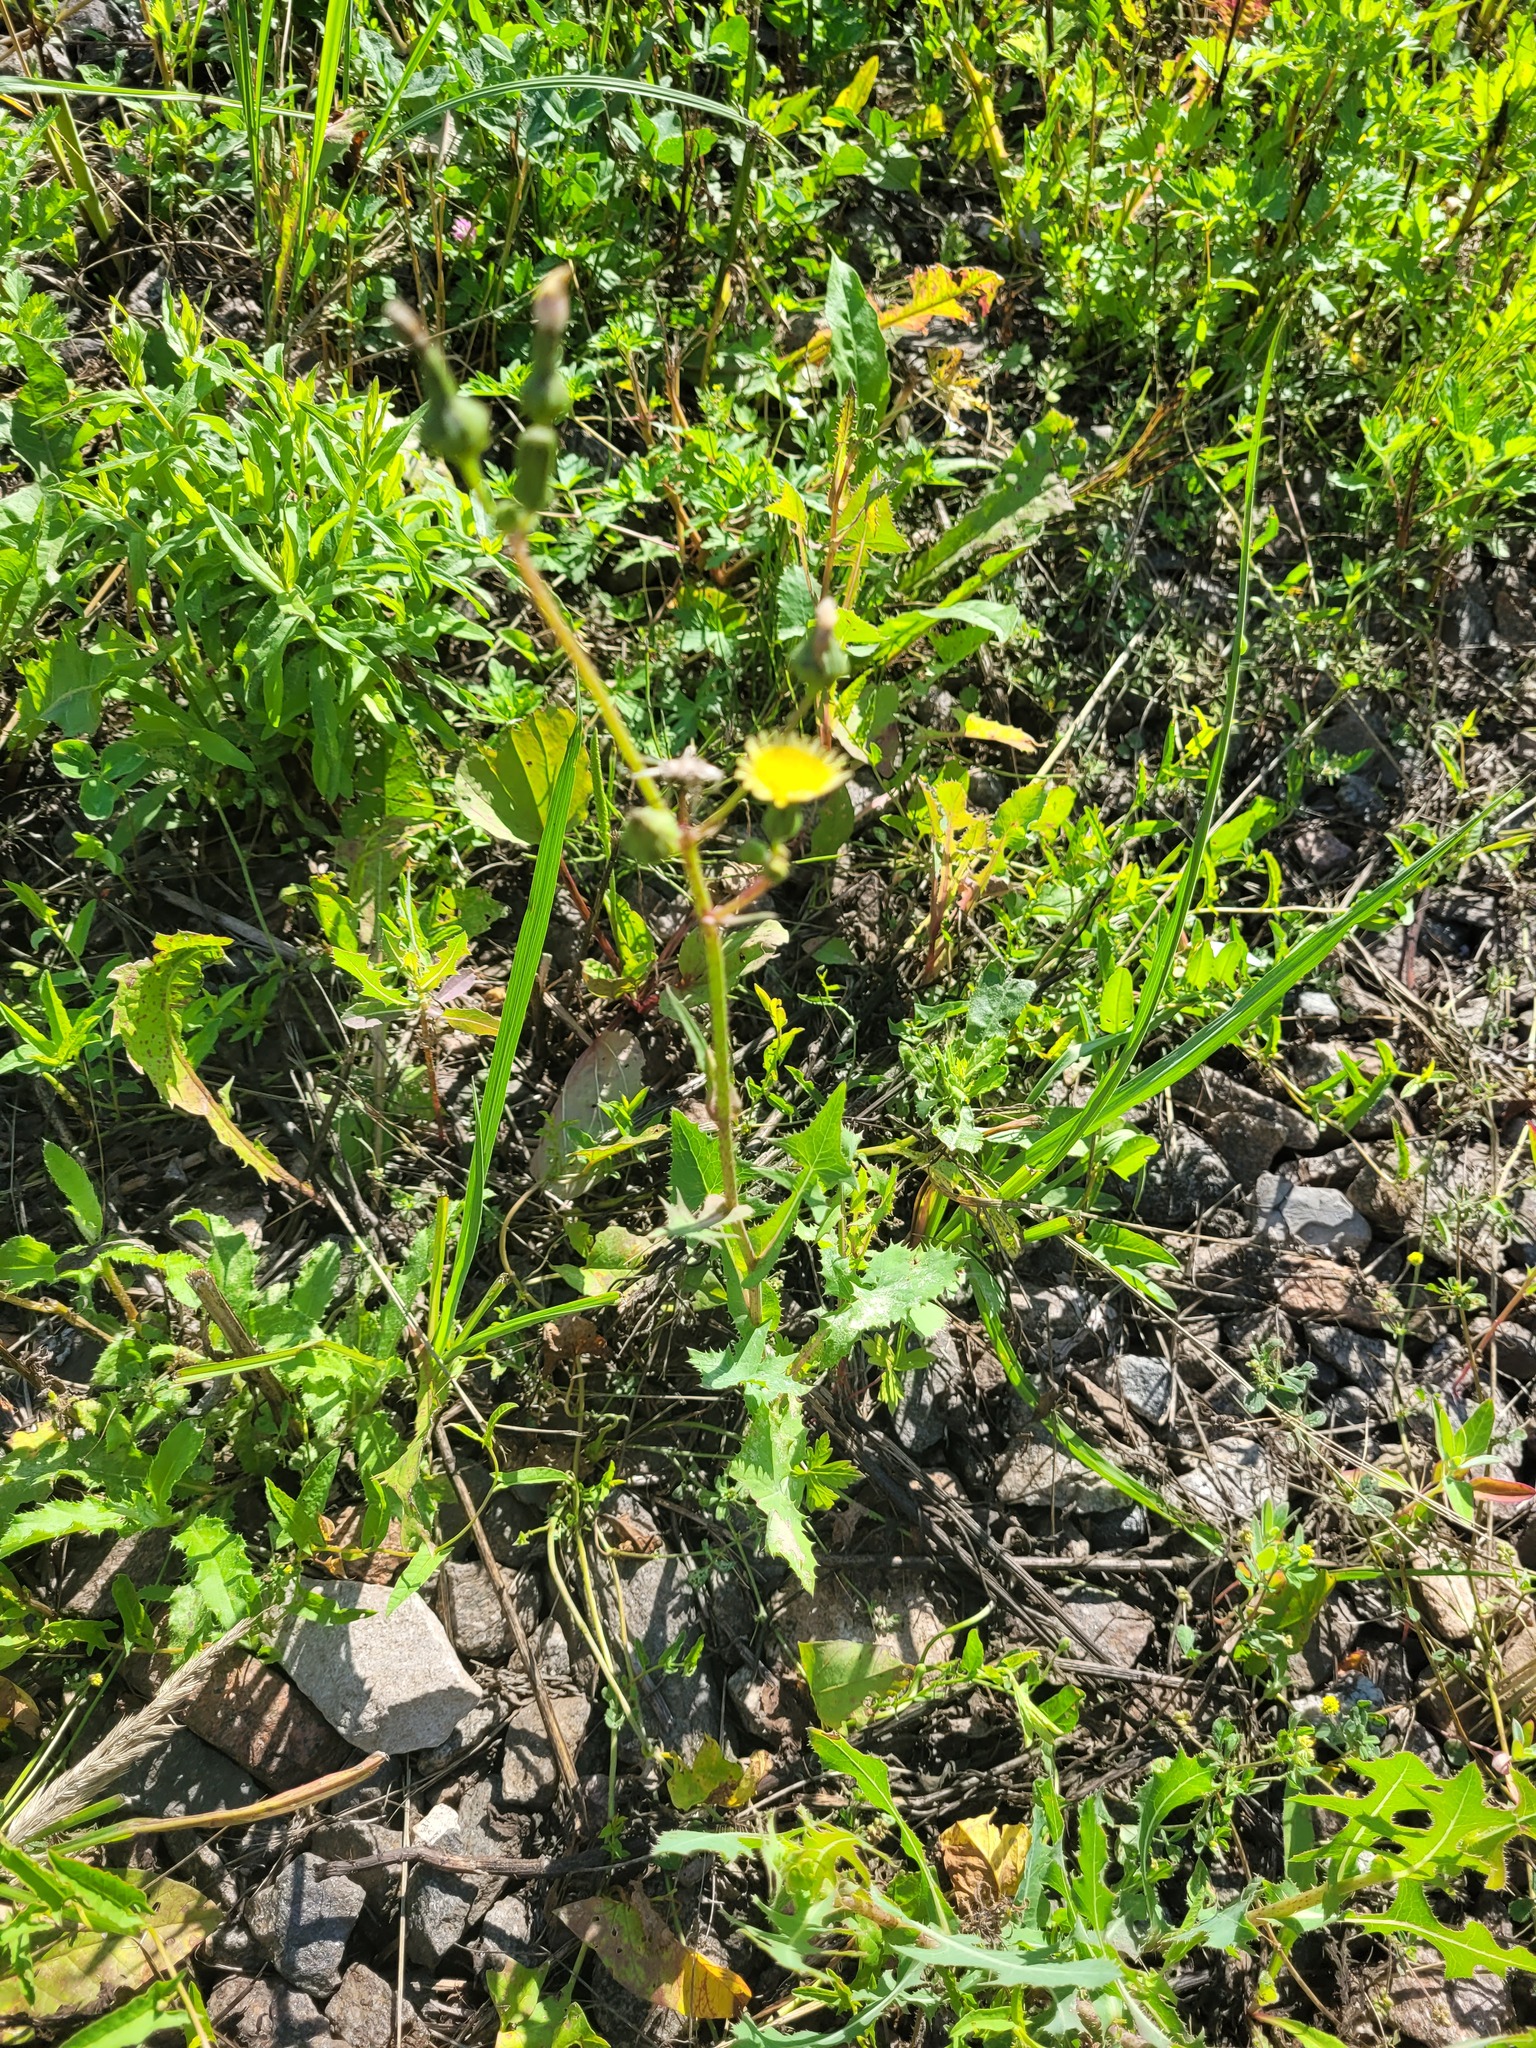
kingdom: Plantae
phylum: Tracheophyta
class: Magnoliopsida
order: Asterales
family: Asteraceae
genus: Sonchus
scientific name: Sonchus oleraceus
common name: Common sowthistle
